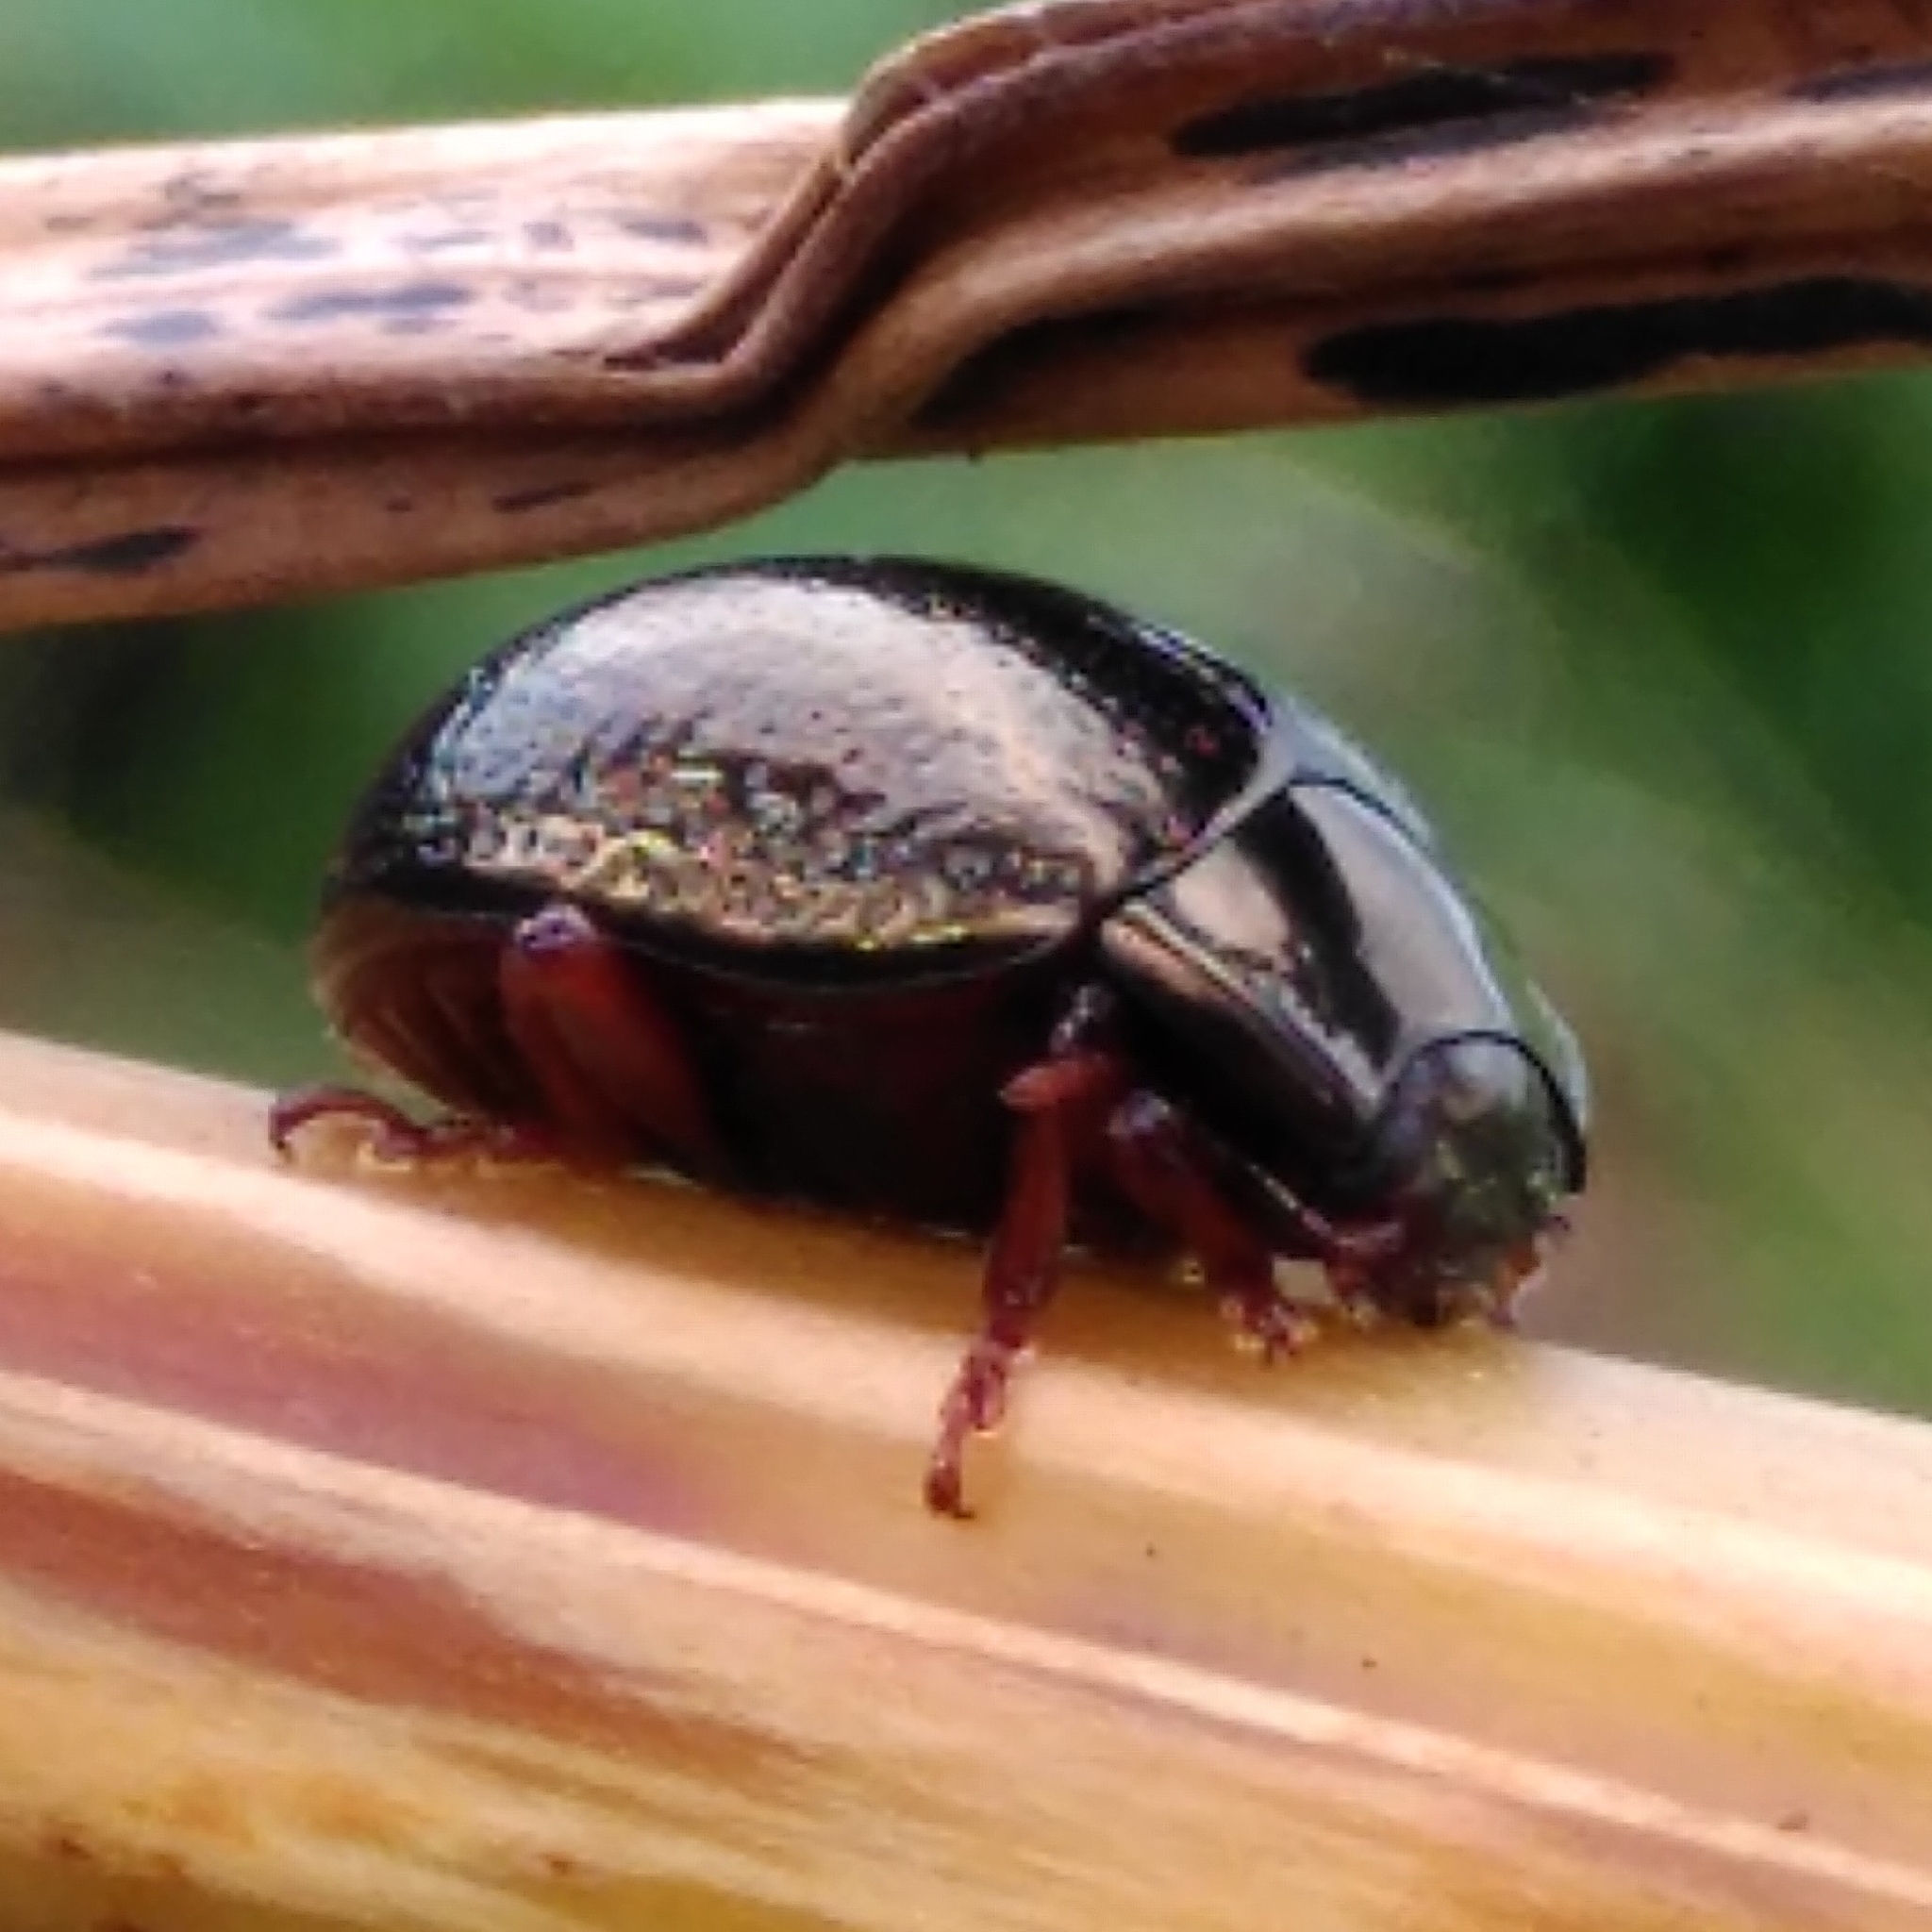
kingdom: Animalia
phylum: Arthropoda
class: Insecta
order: Coleoptera
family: Chrysomelidae
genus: Chrysolina
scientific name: Chrysolina bankii
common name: Leaf beetle
